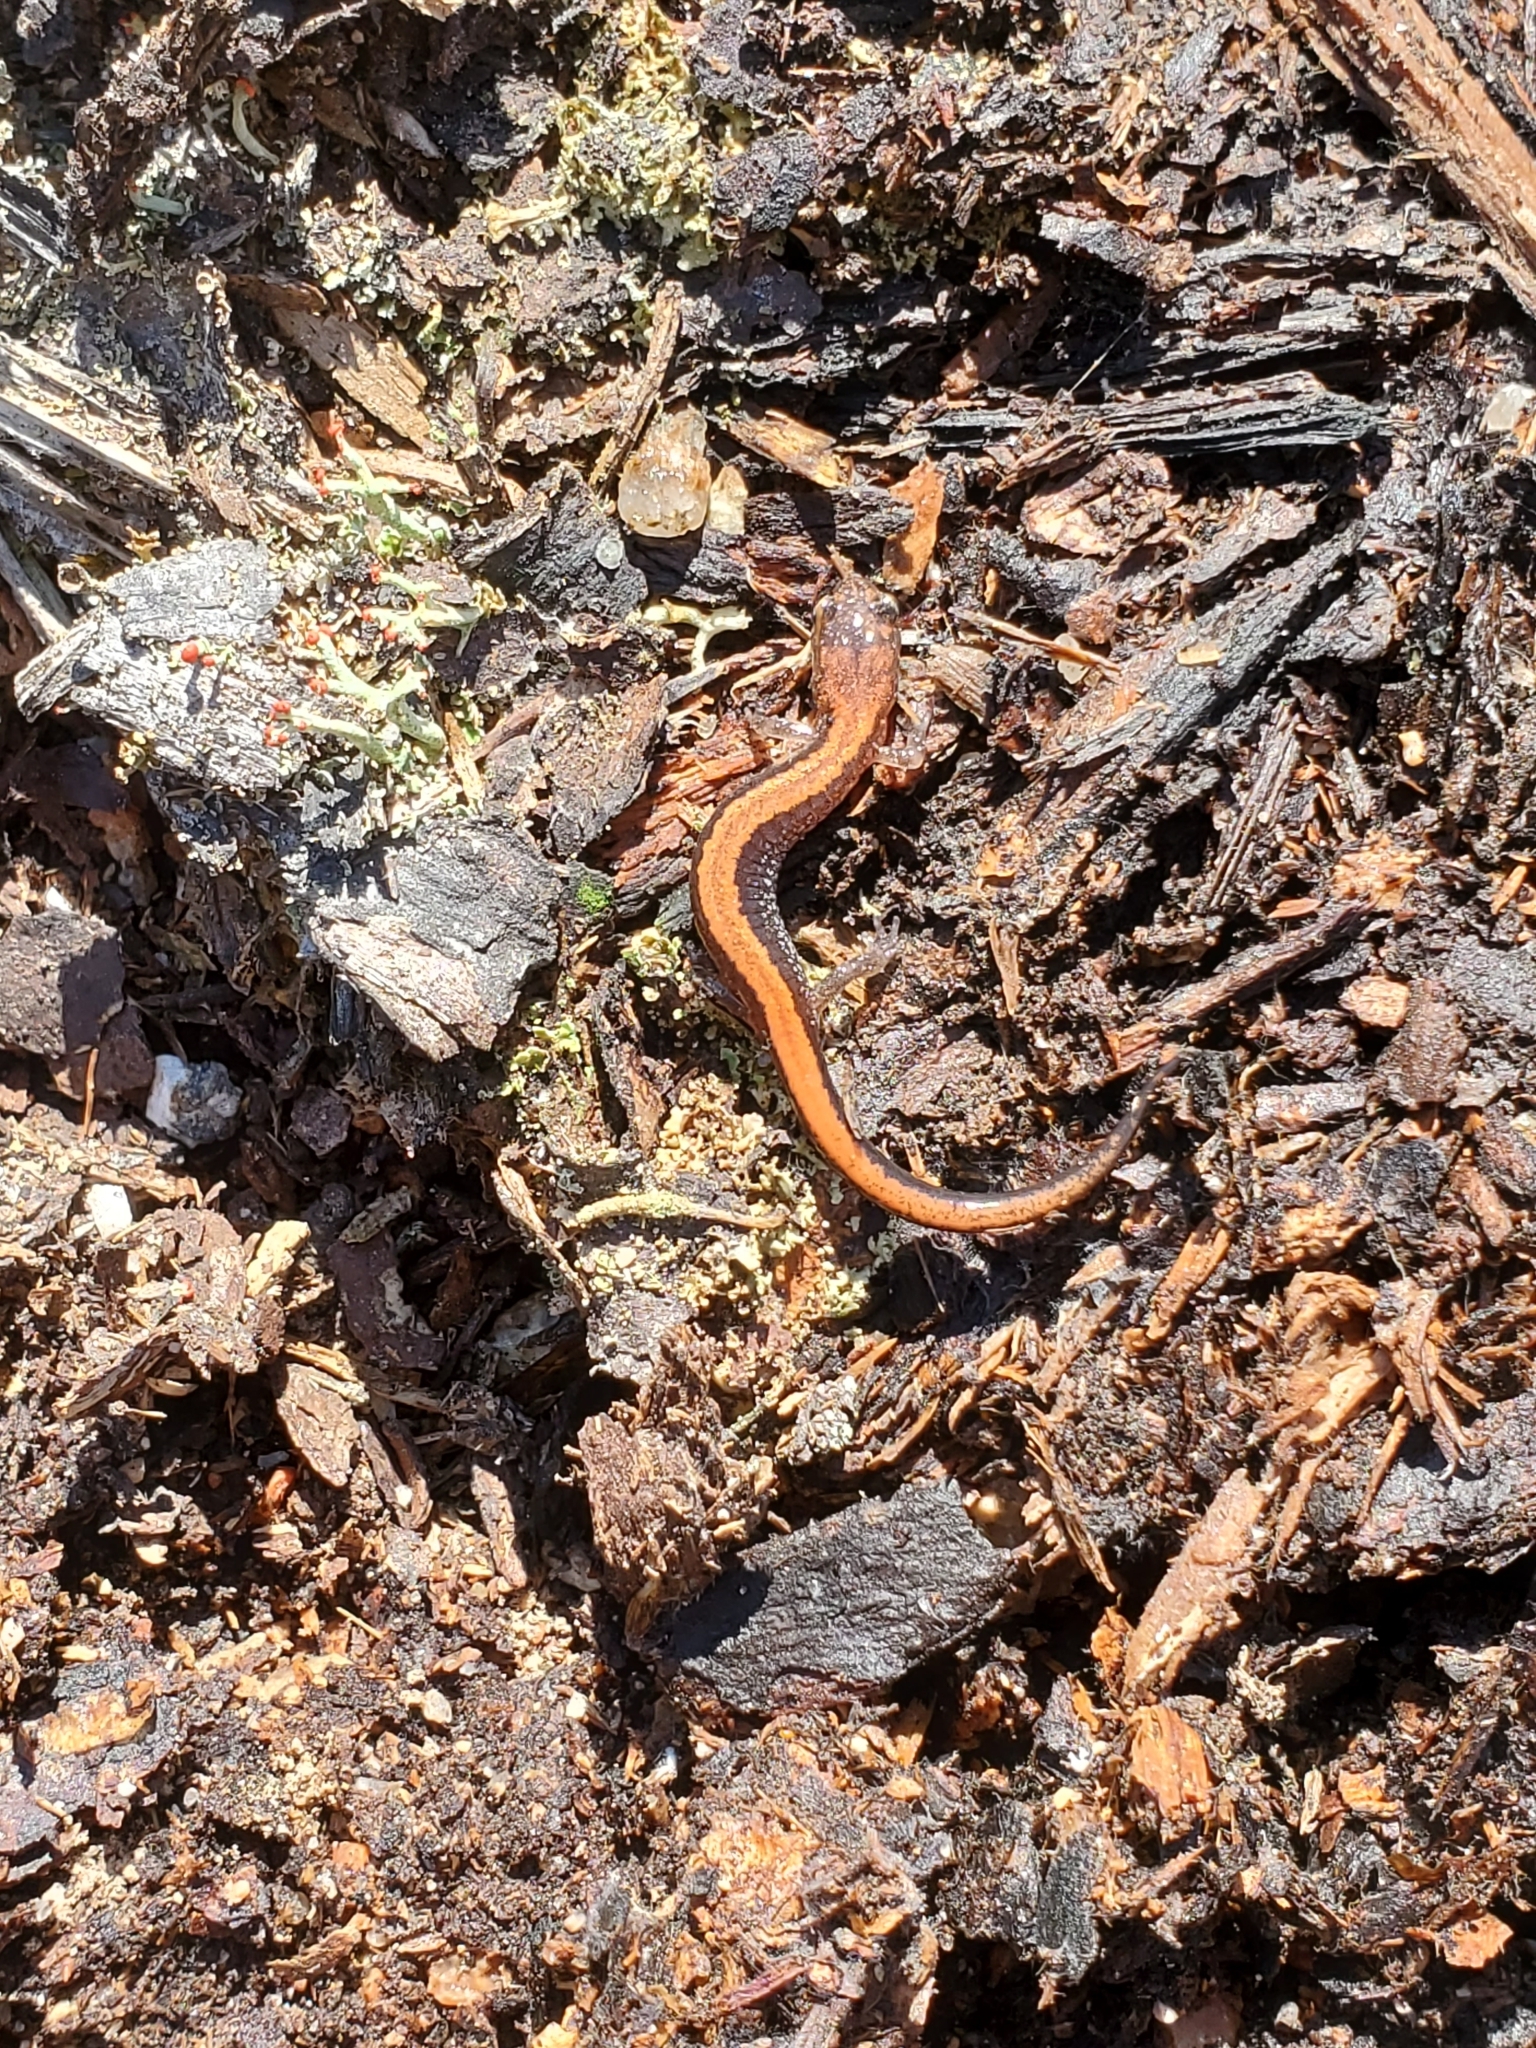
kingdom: Animalia
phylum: Chordata
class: Amphibia
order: Caudata
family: Plethodontidae
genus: Plethodon
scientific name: Plethodon cinereus
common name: Redback salamander
